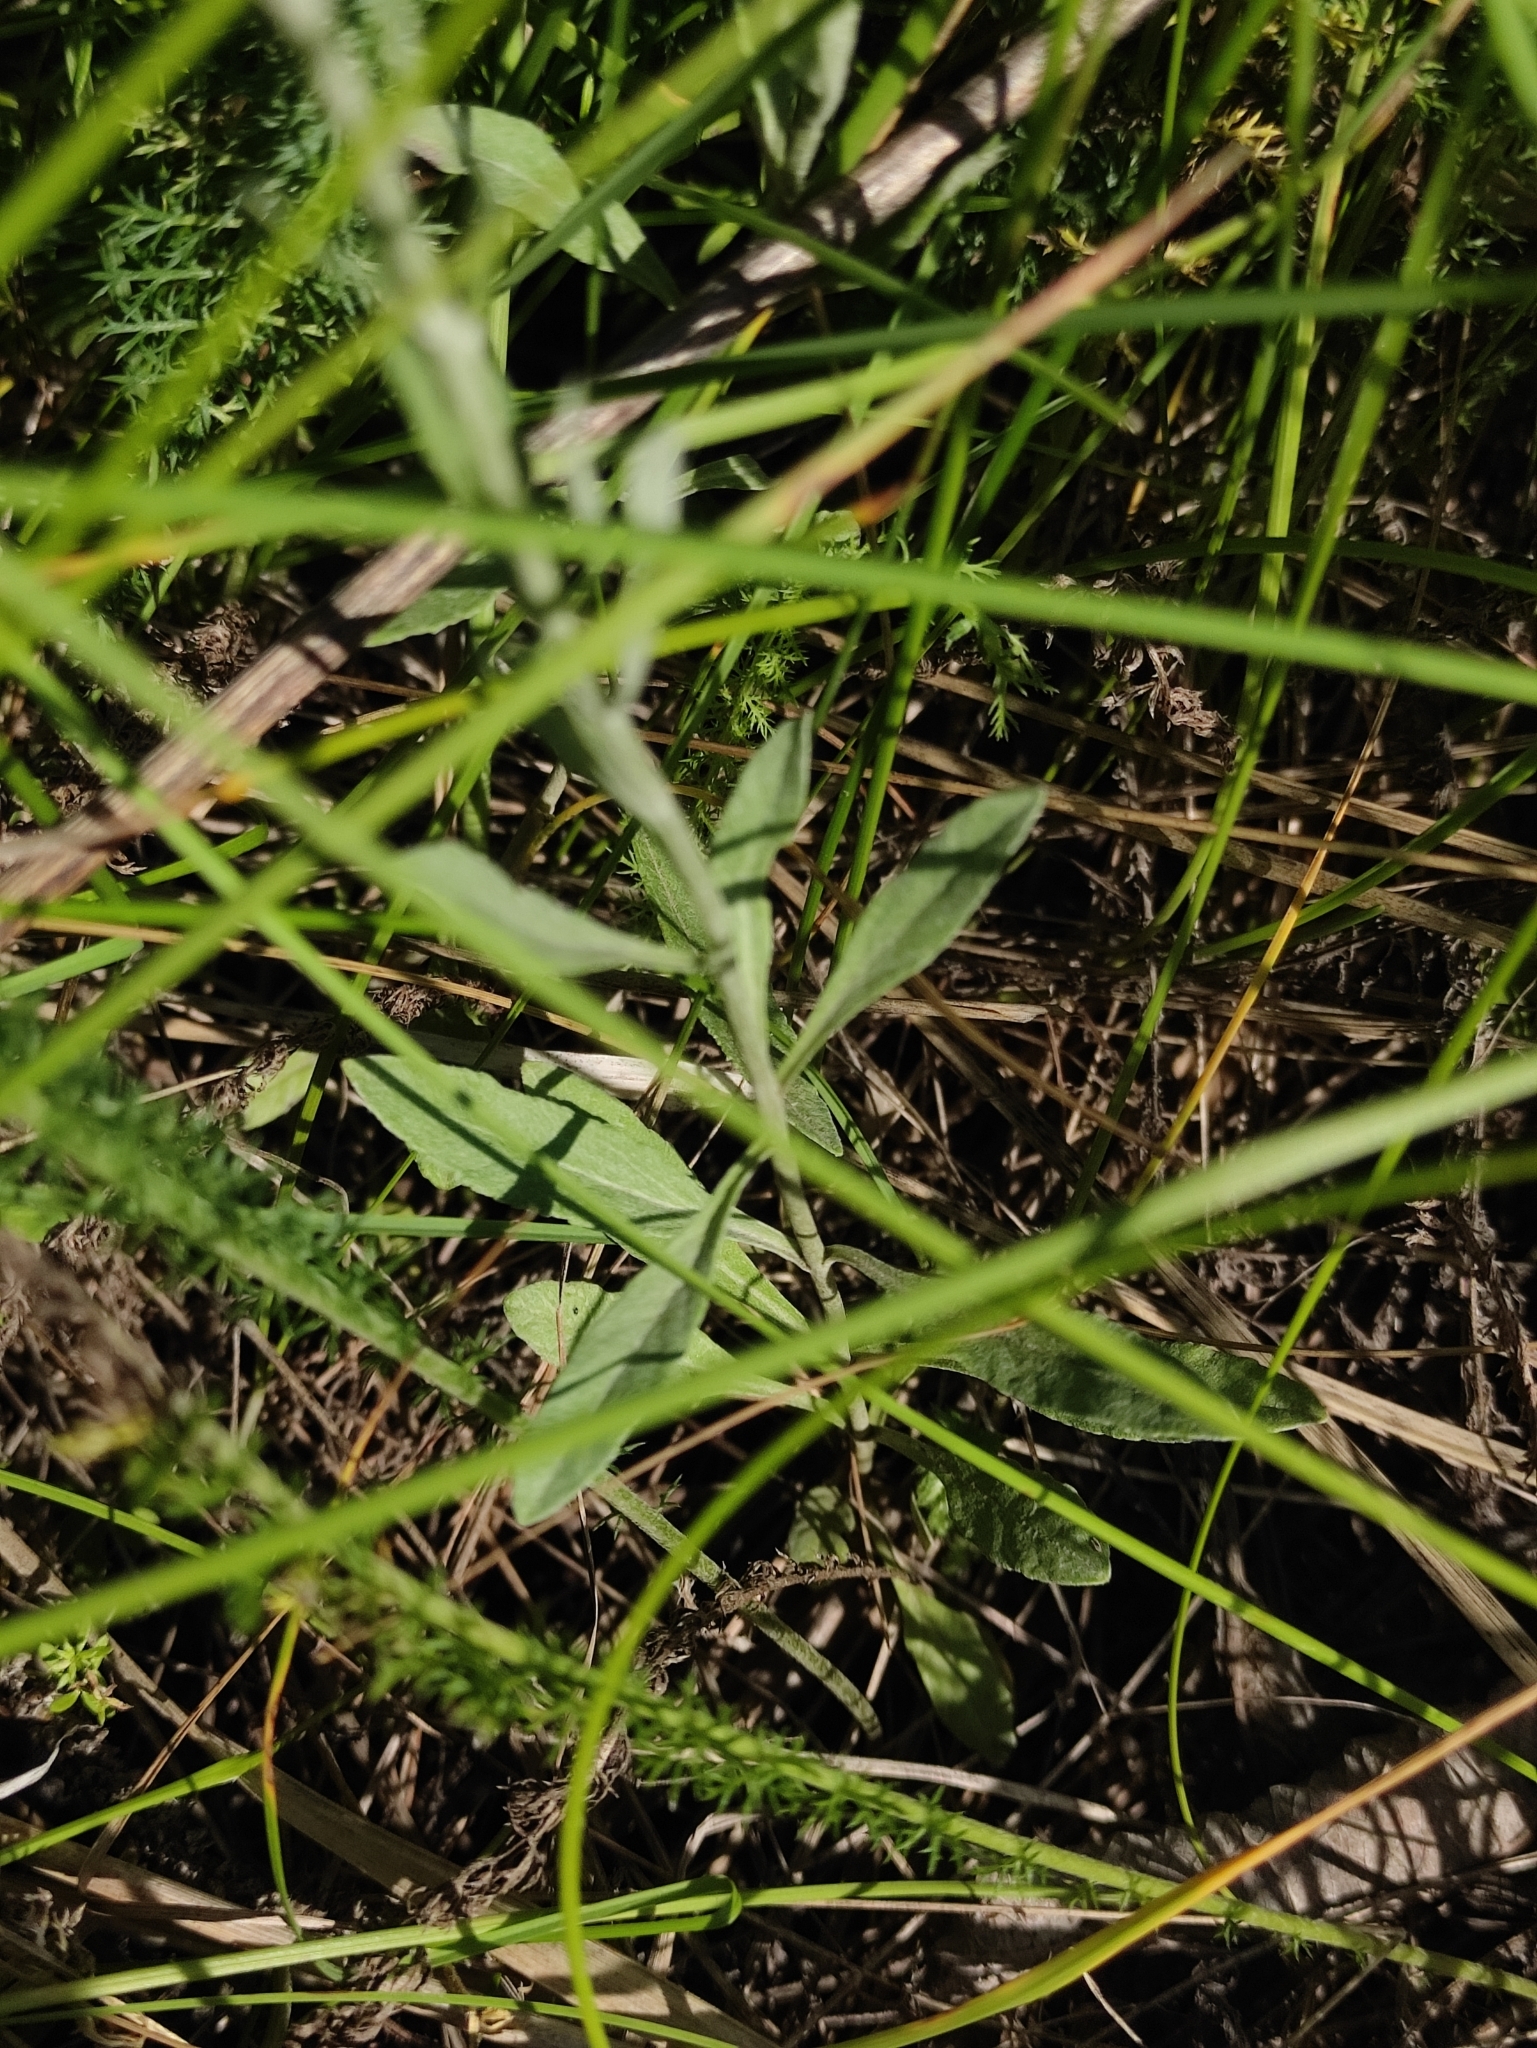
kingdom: Plantae
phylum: Tracheophyta
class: Magnoliopsida
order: Lamiales
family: Plantaginaceae
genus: Veronica
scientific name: Veronica incana
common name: Silver speedwell
